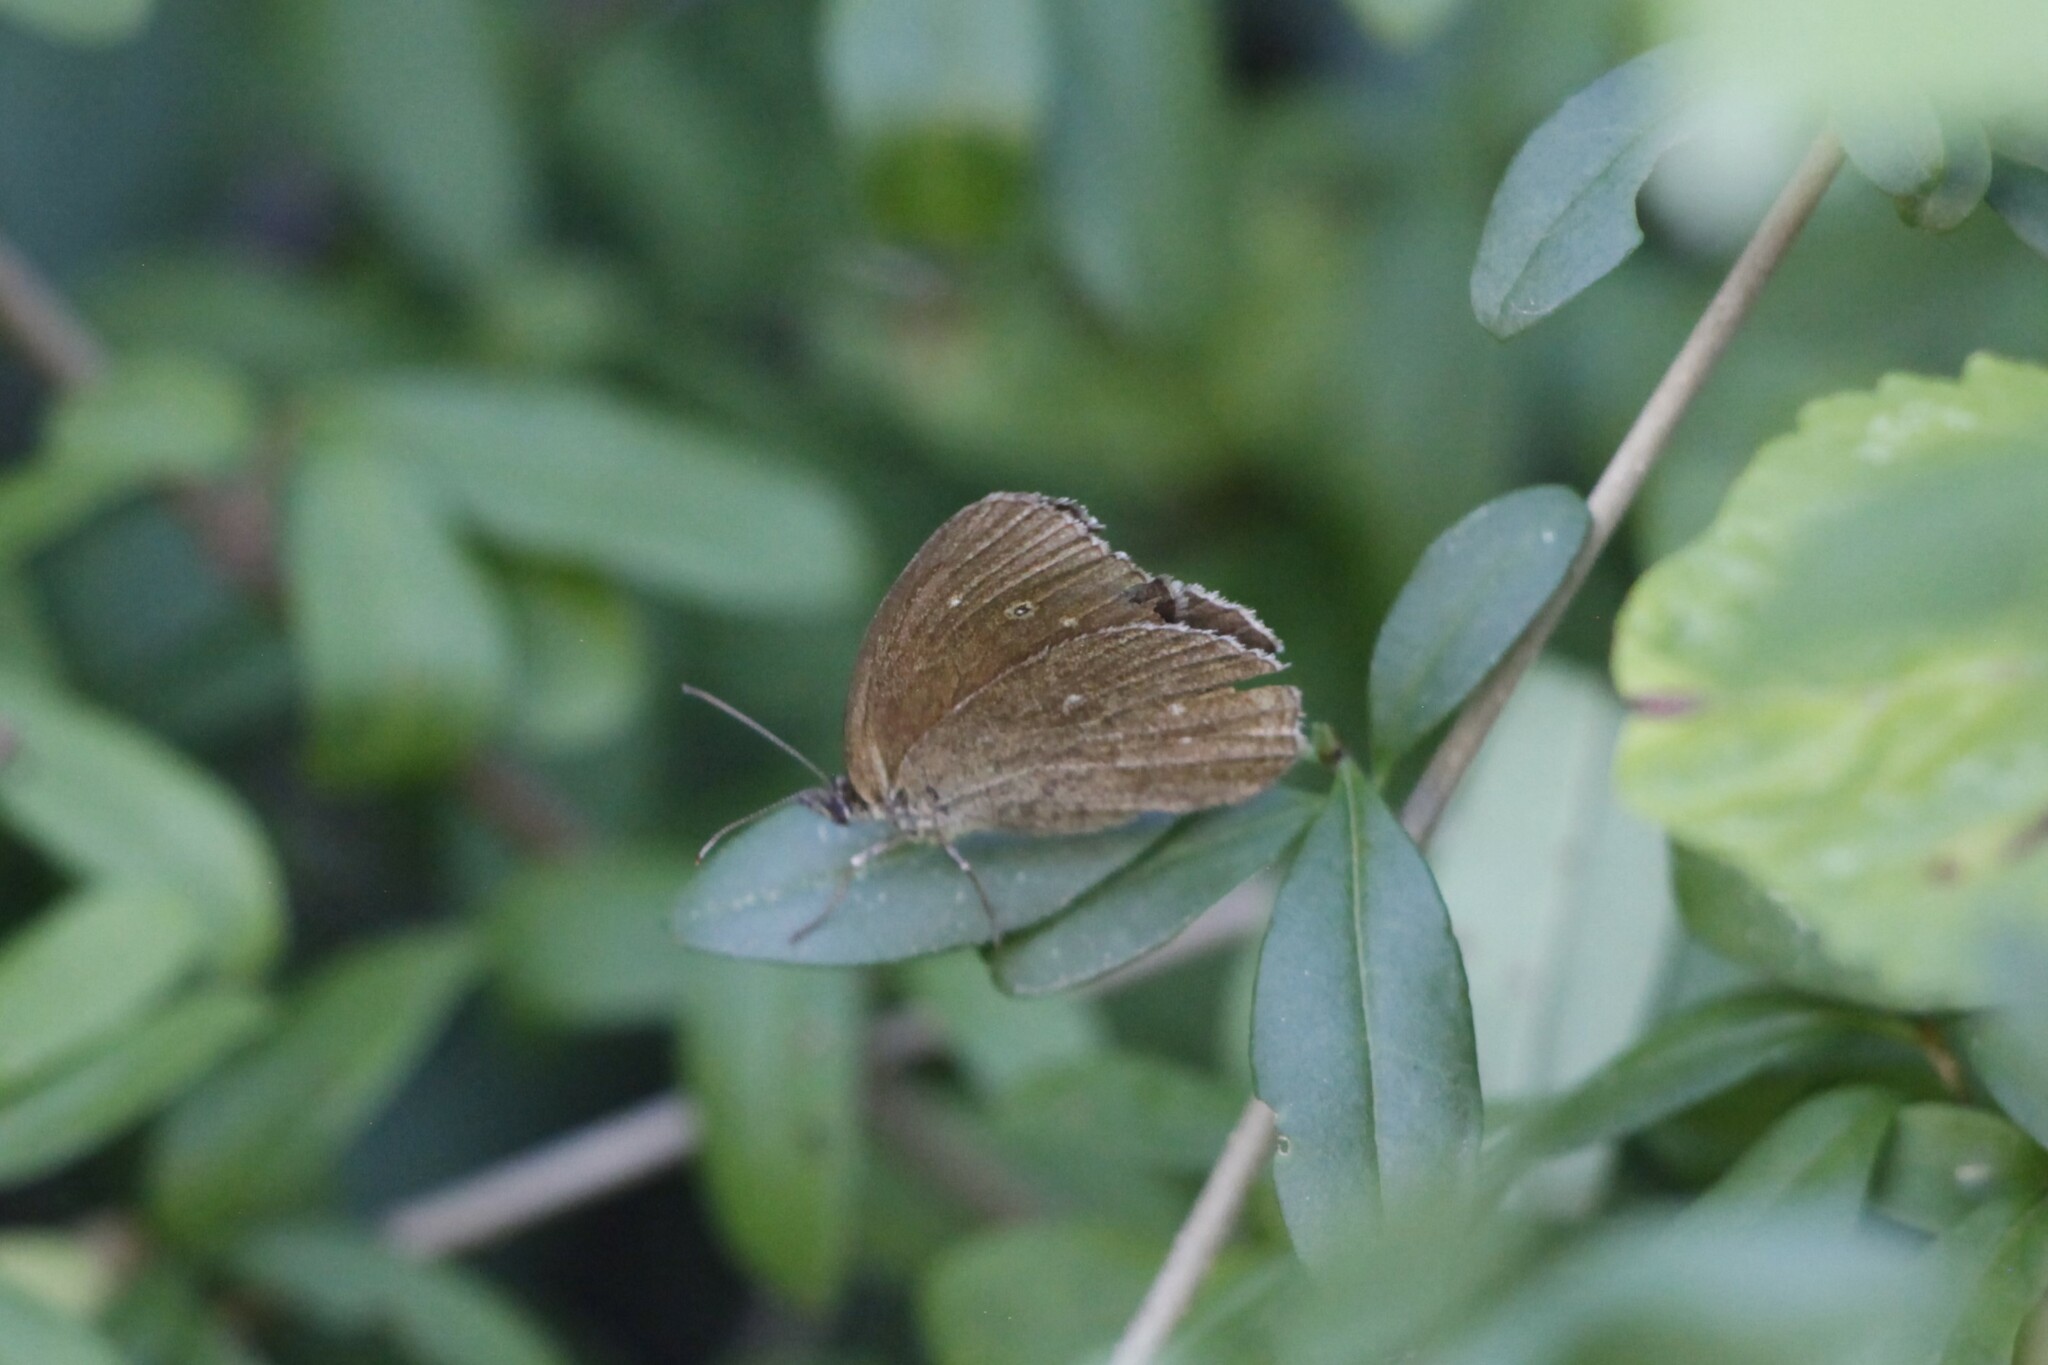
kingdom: Animalia
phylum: Arthropoda
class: Insecta
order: Lepidoptera
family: Nymphalidae
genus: Aphantopus
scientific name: Aphantopus hyperantus
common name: Ringlet
